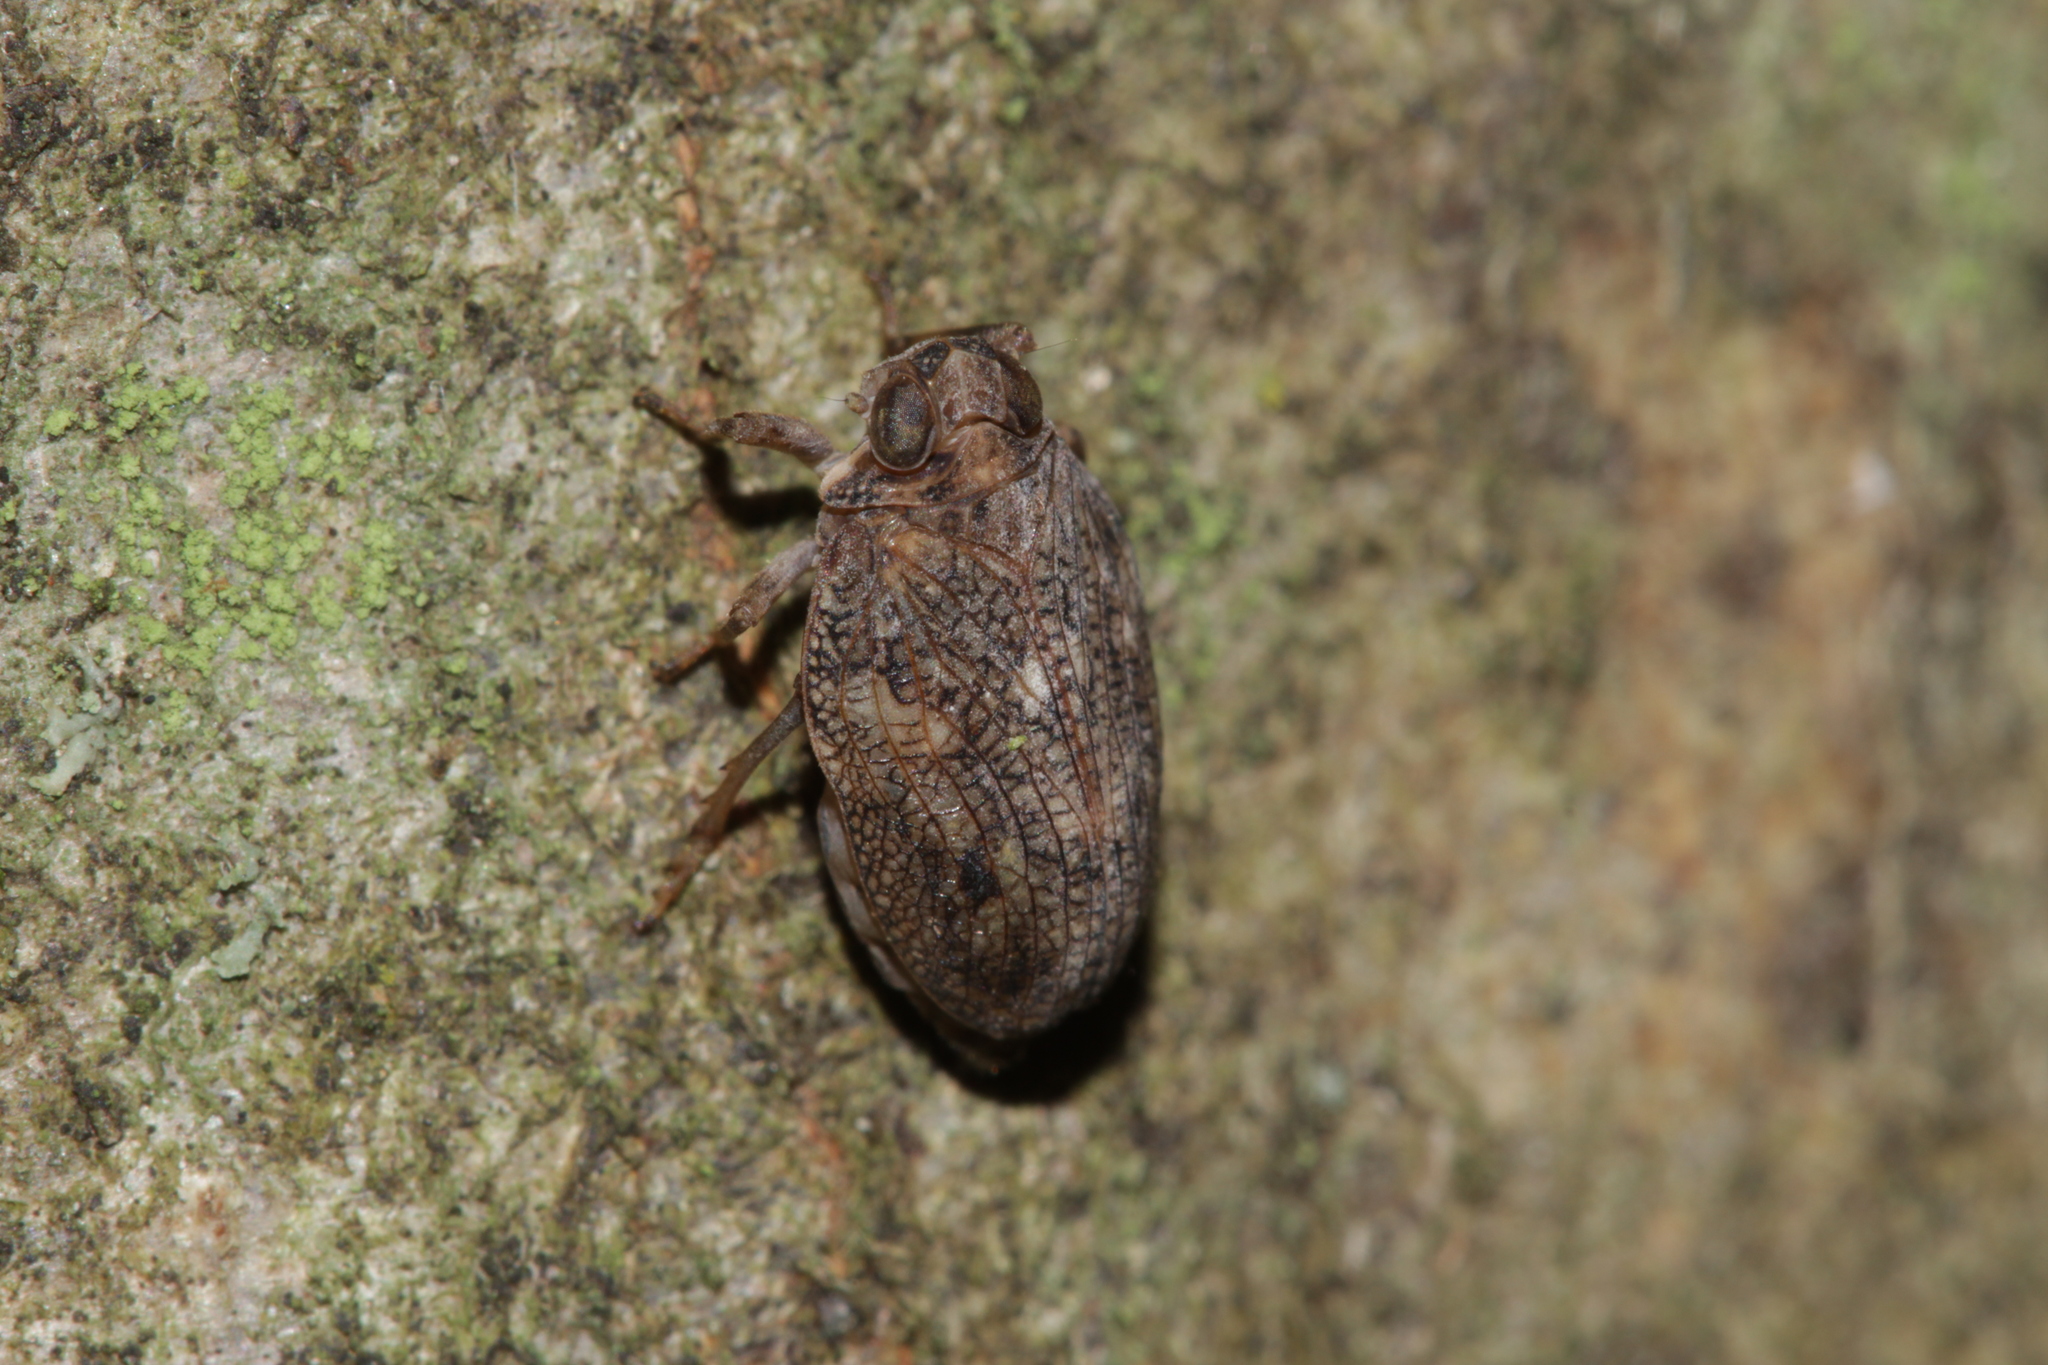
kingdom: Animalia
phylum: Arthropoda
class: Insecta
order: Hemiptera
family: Issidae
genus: Issus
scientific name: Issus coleoptratus
